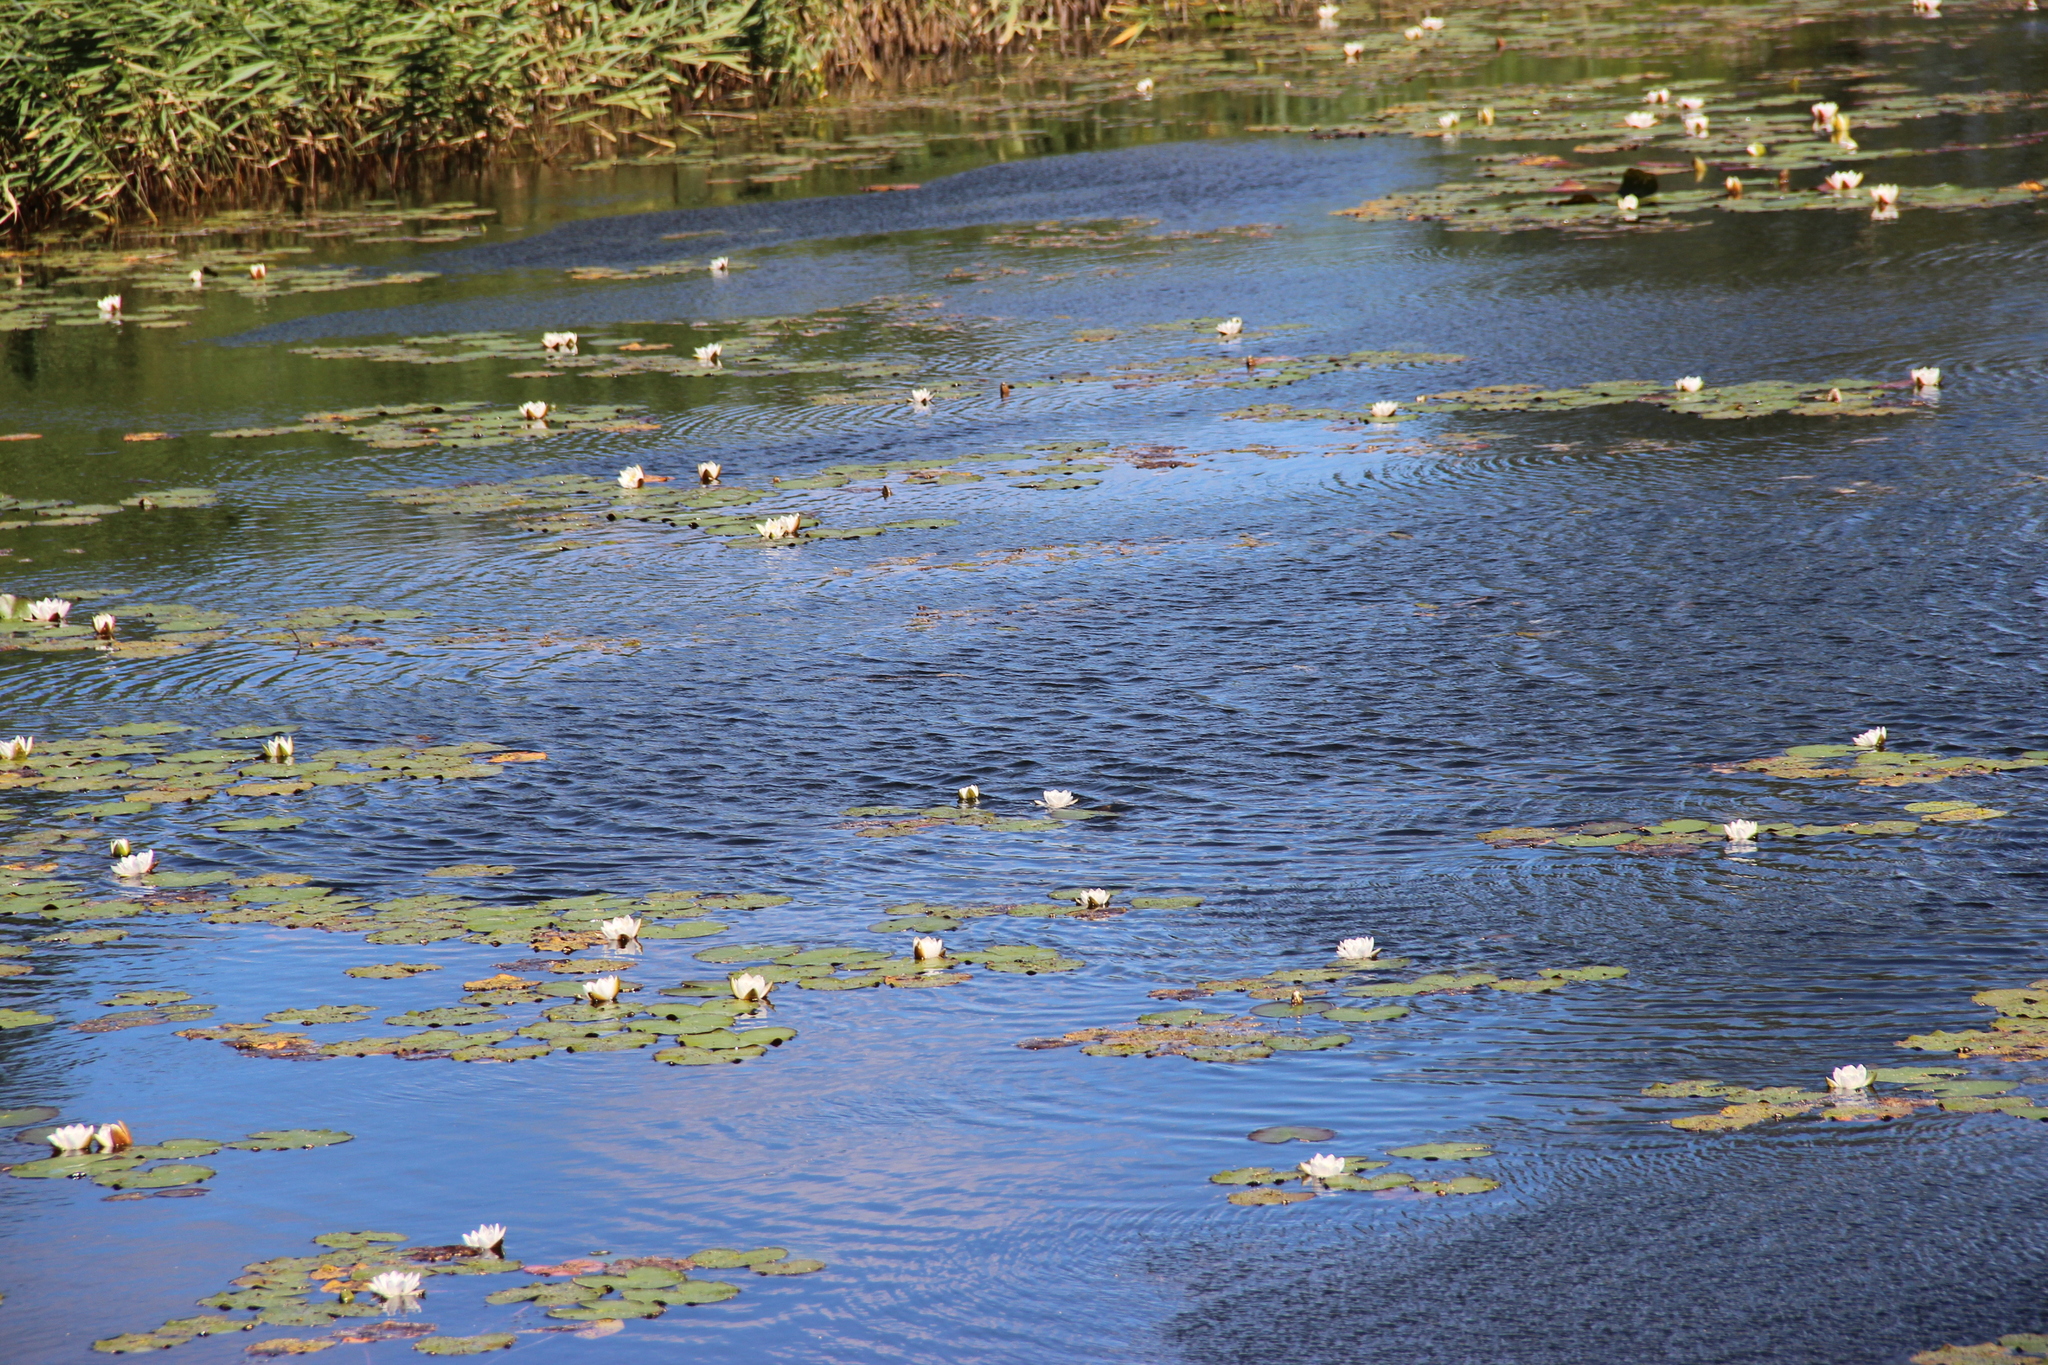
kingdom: Plantae
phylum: Tracheophyta
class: Magnoliopsida
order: Nymphaeales
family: Nymphaeaceae
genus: Nymphaea
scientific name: Nymphaea candida
